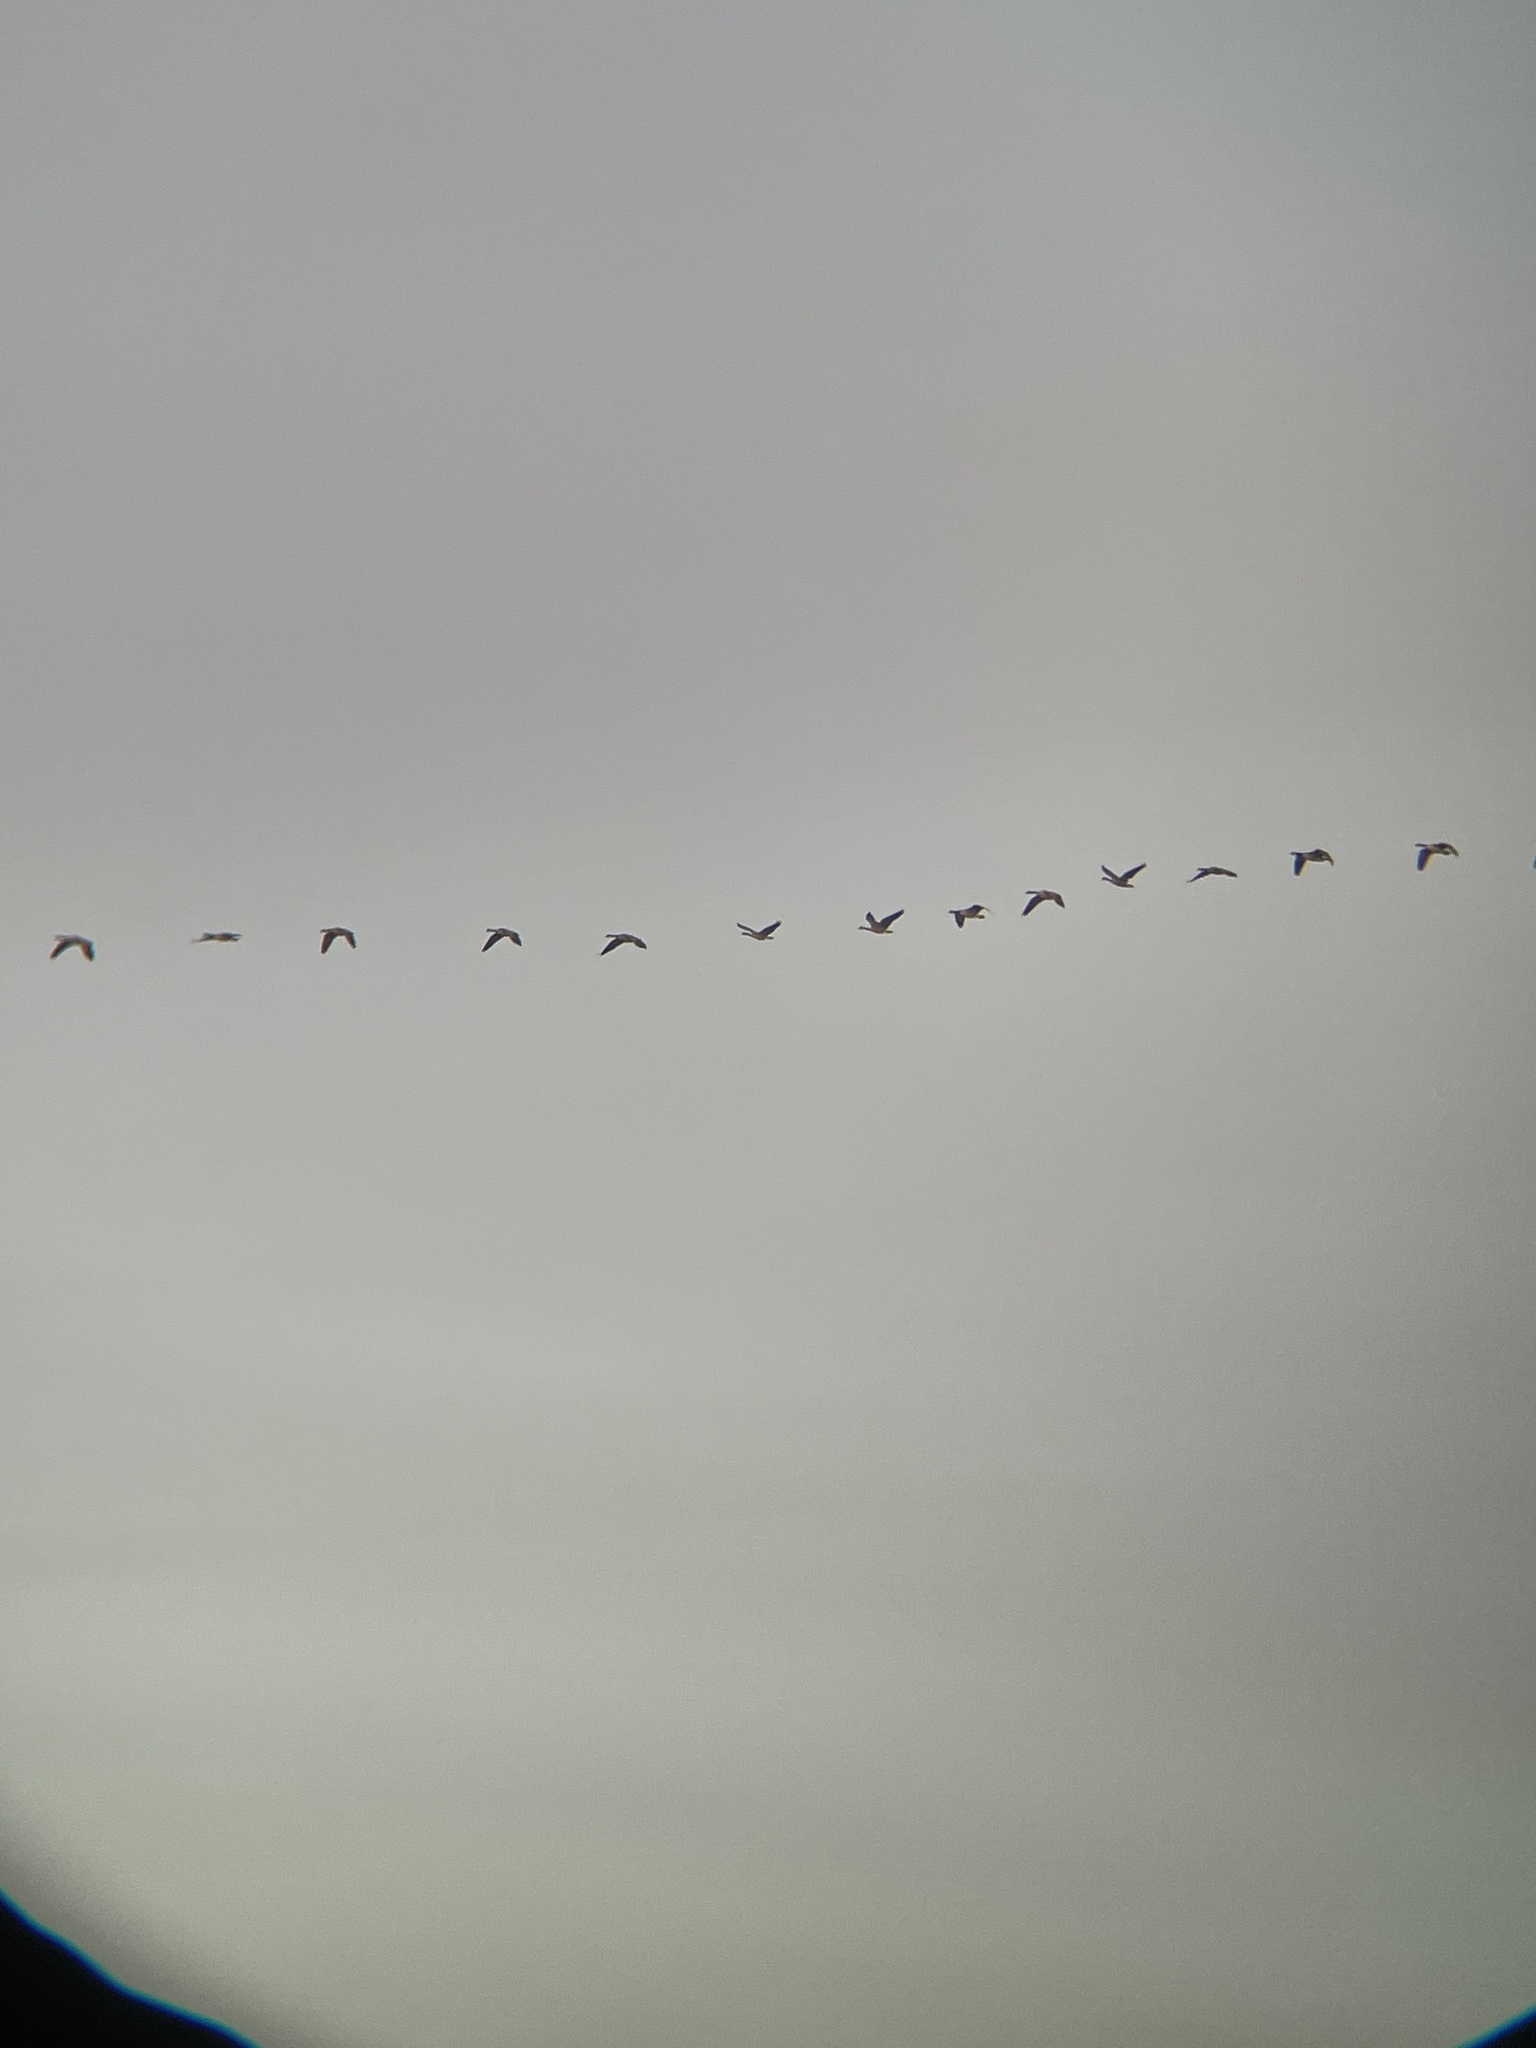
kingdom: Animalia
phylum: Chordata
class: Aves
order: Anseriformes
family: Anatidae
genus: Branta
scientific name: Branta canadensis
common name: Canada goose
